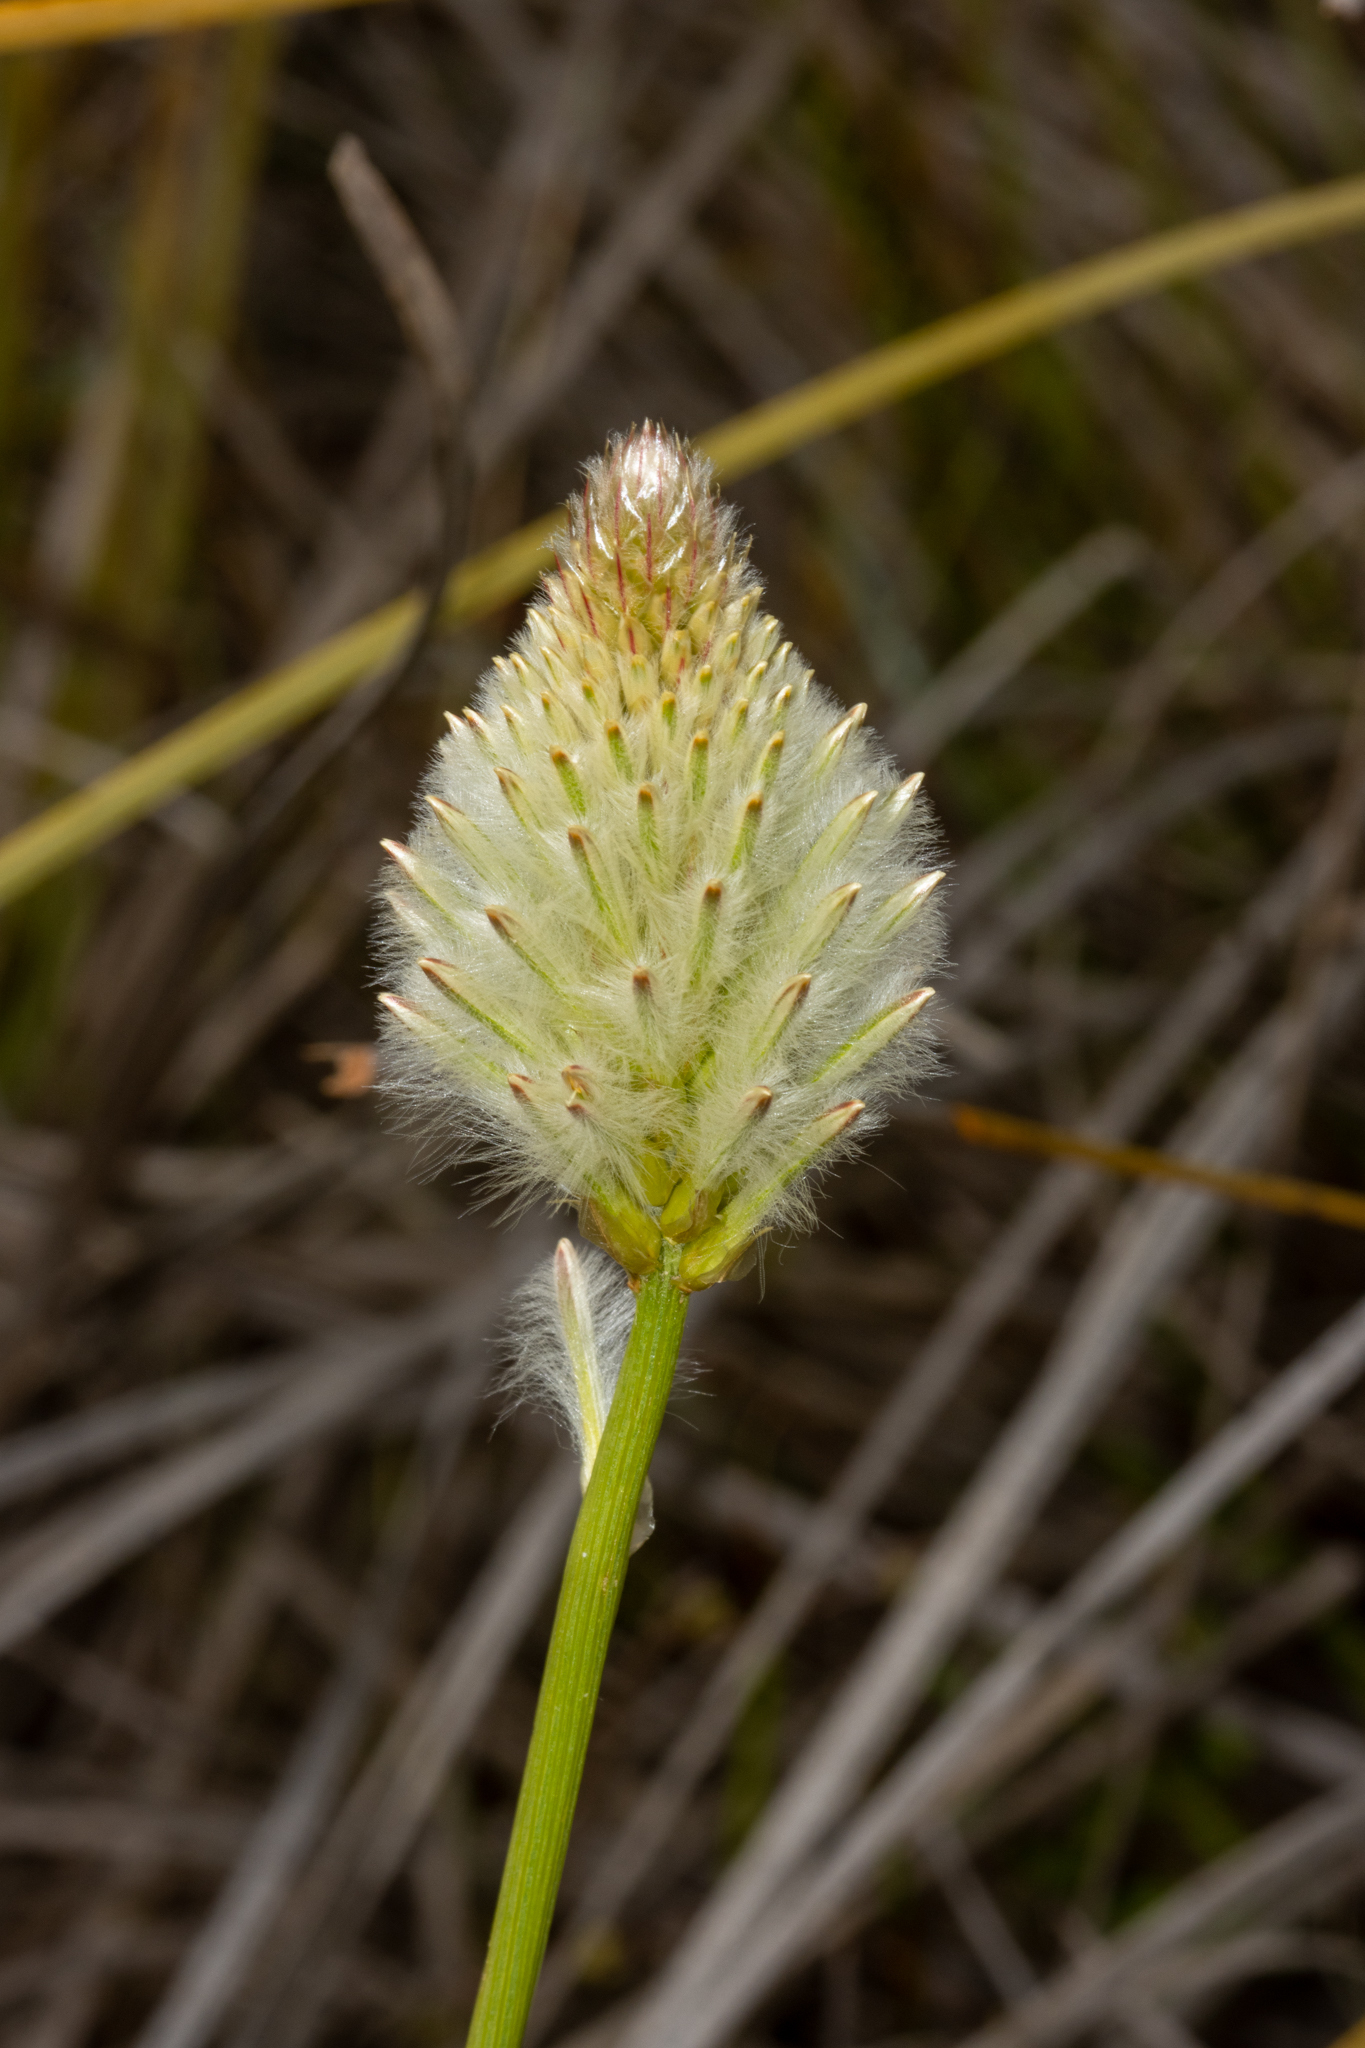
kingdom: Plantae
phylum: Tracheophyta
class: Magnoliopsida
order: Caryophyllales
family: Amaranthaceae
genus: Ptilotus
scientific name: Ptilotus macrocephalus
